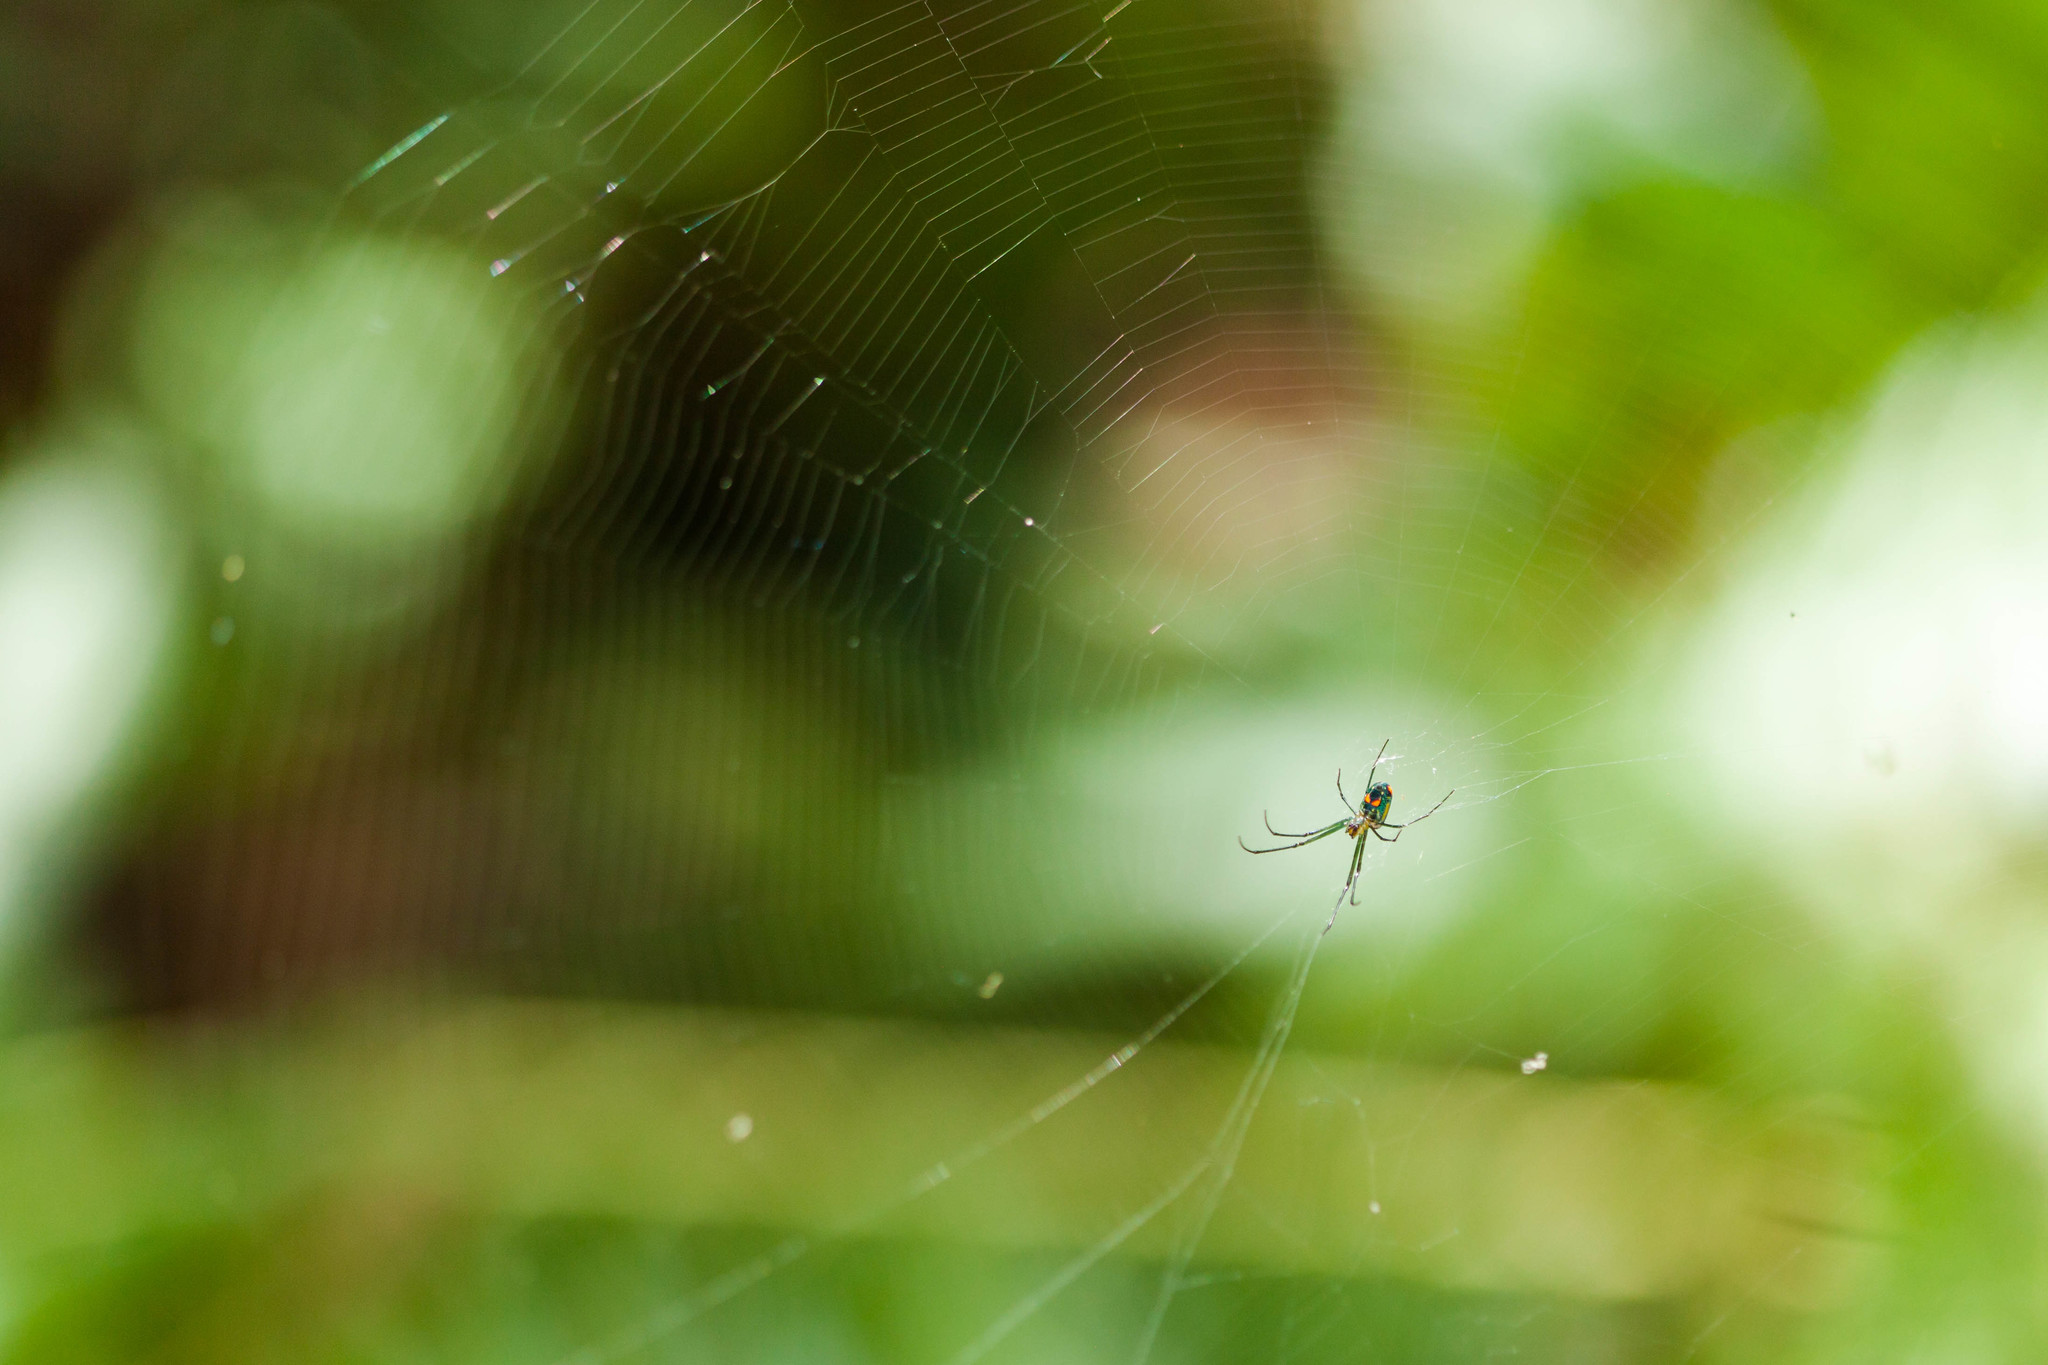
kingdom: Animalia
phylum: Arthropoda
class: Arachnida
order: Araneae
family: Tetragnathidae
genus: Leucauge
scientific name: Leucauge argyrobapta
